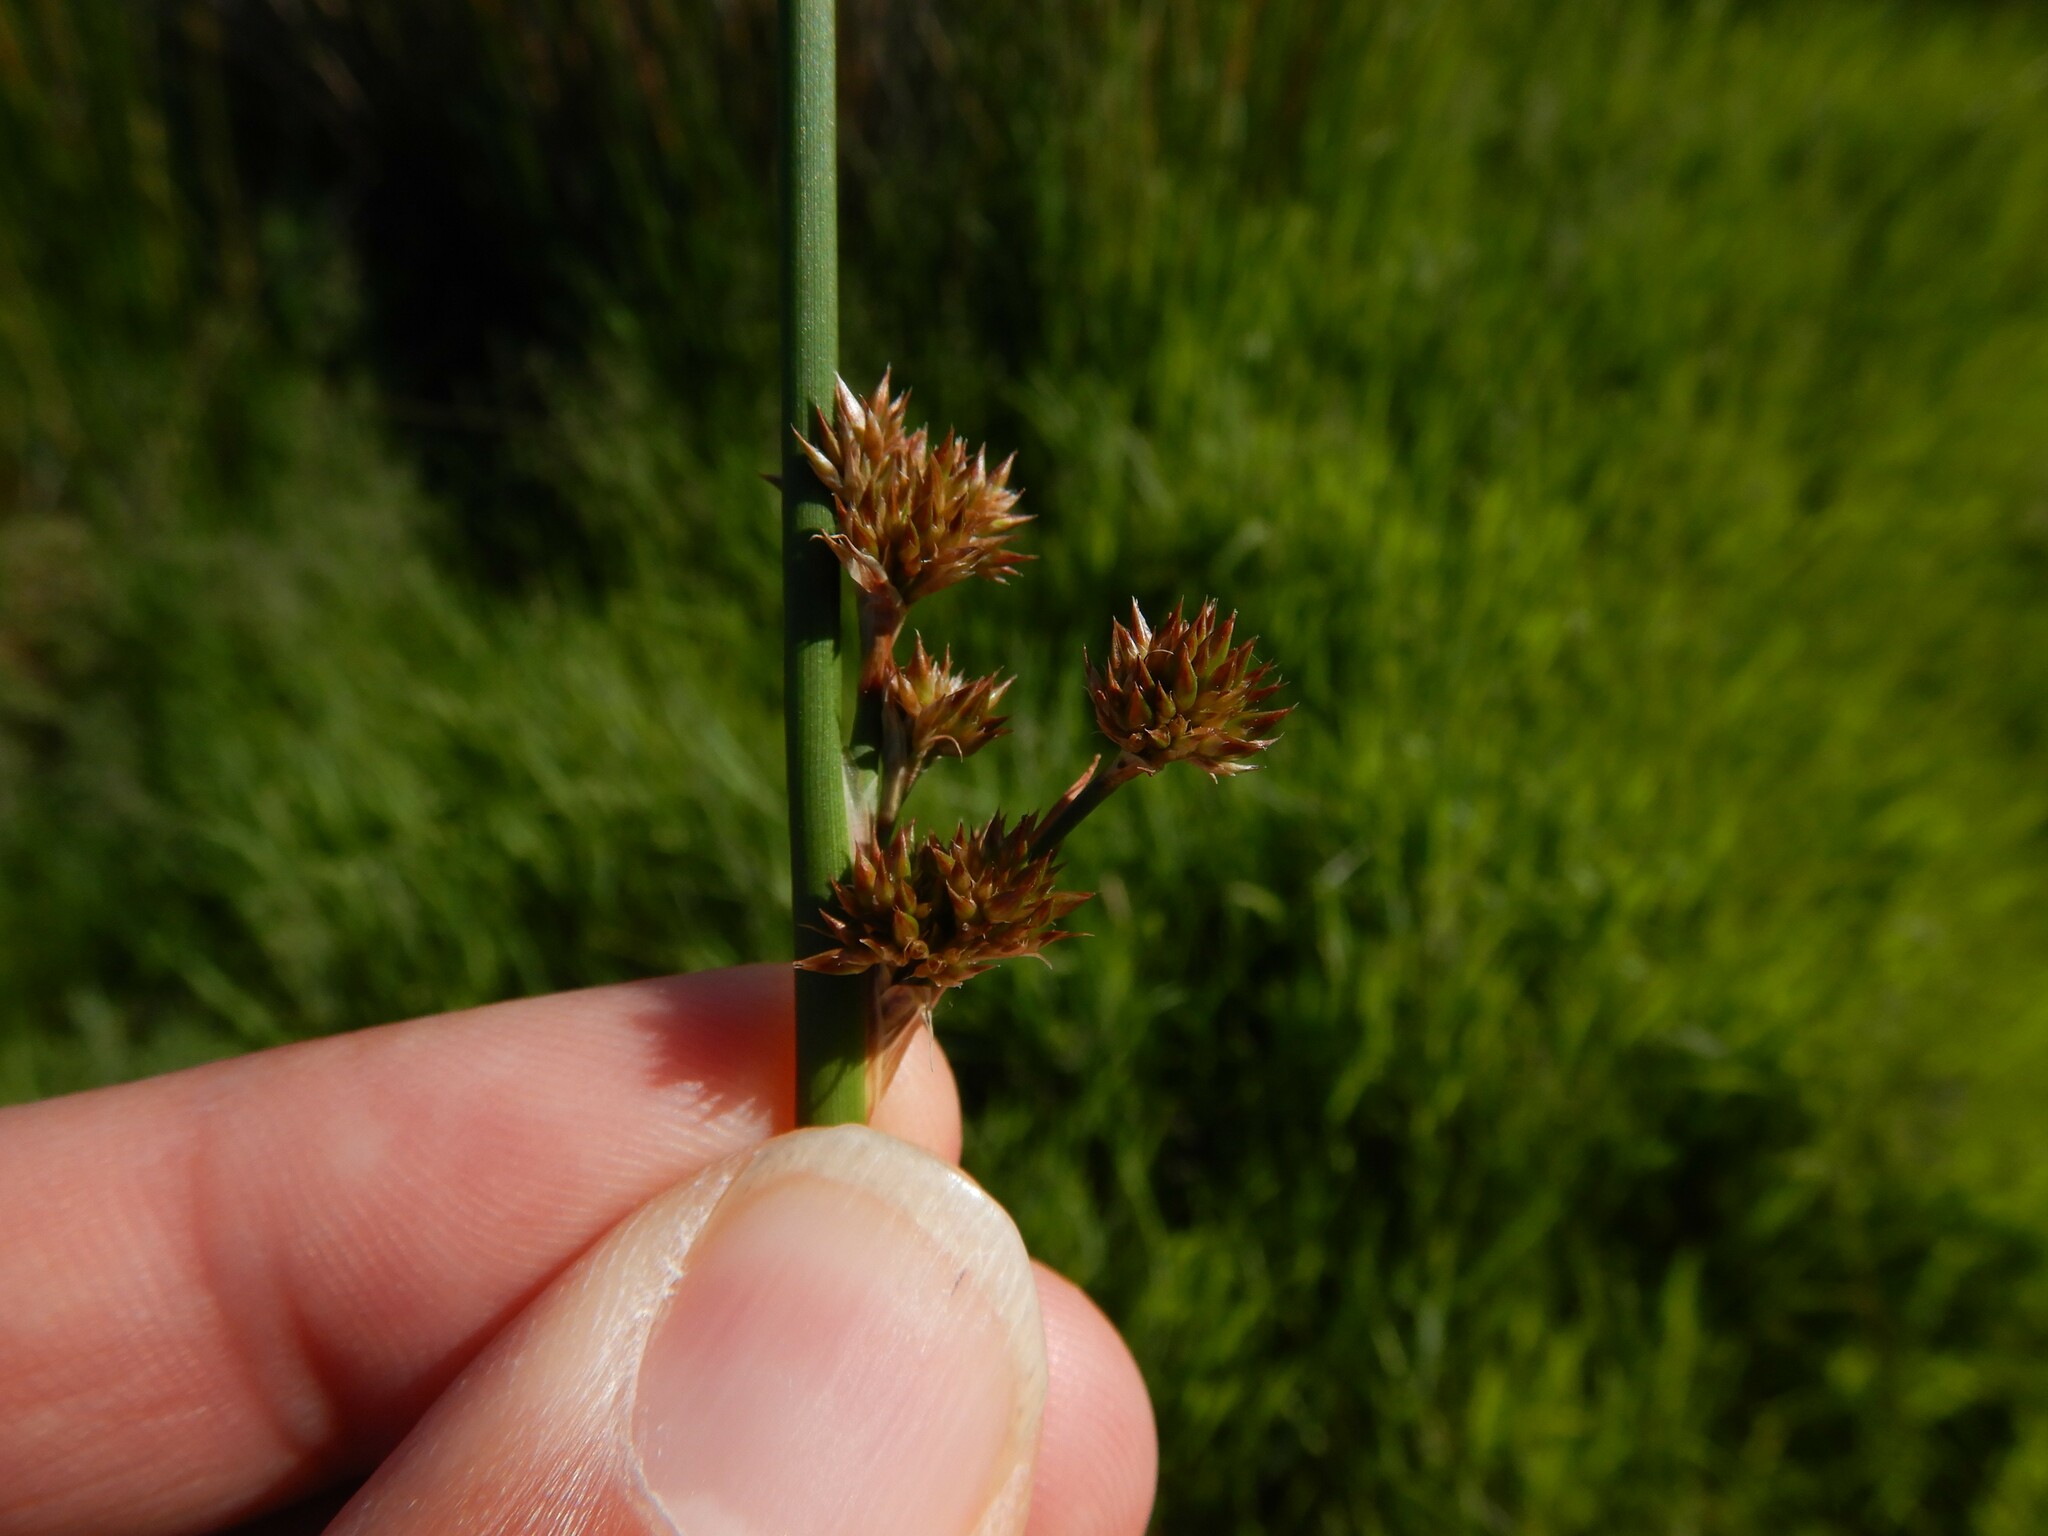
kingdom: Plantae
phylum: Tracheophyta
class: Liliopsida
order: Poales
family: Juncaceae
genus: Juncus
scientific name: Juncus edgariae
